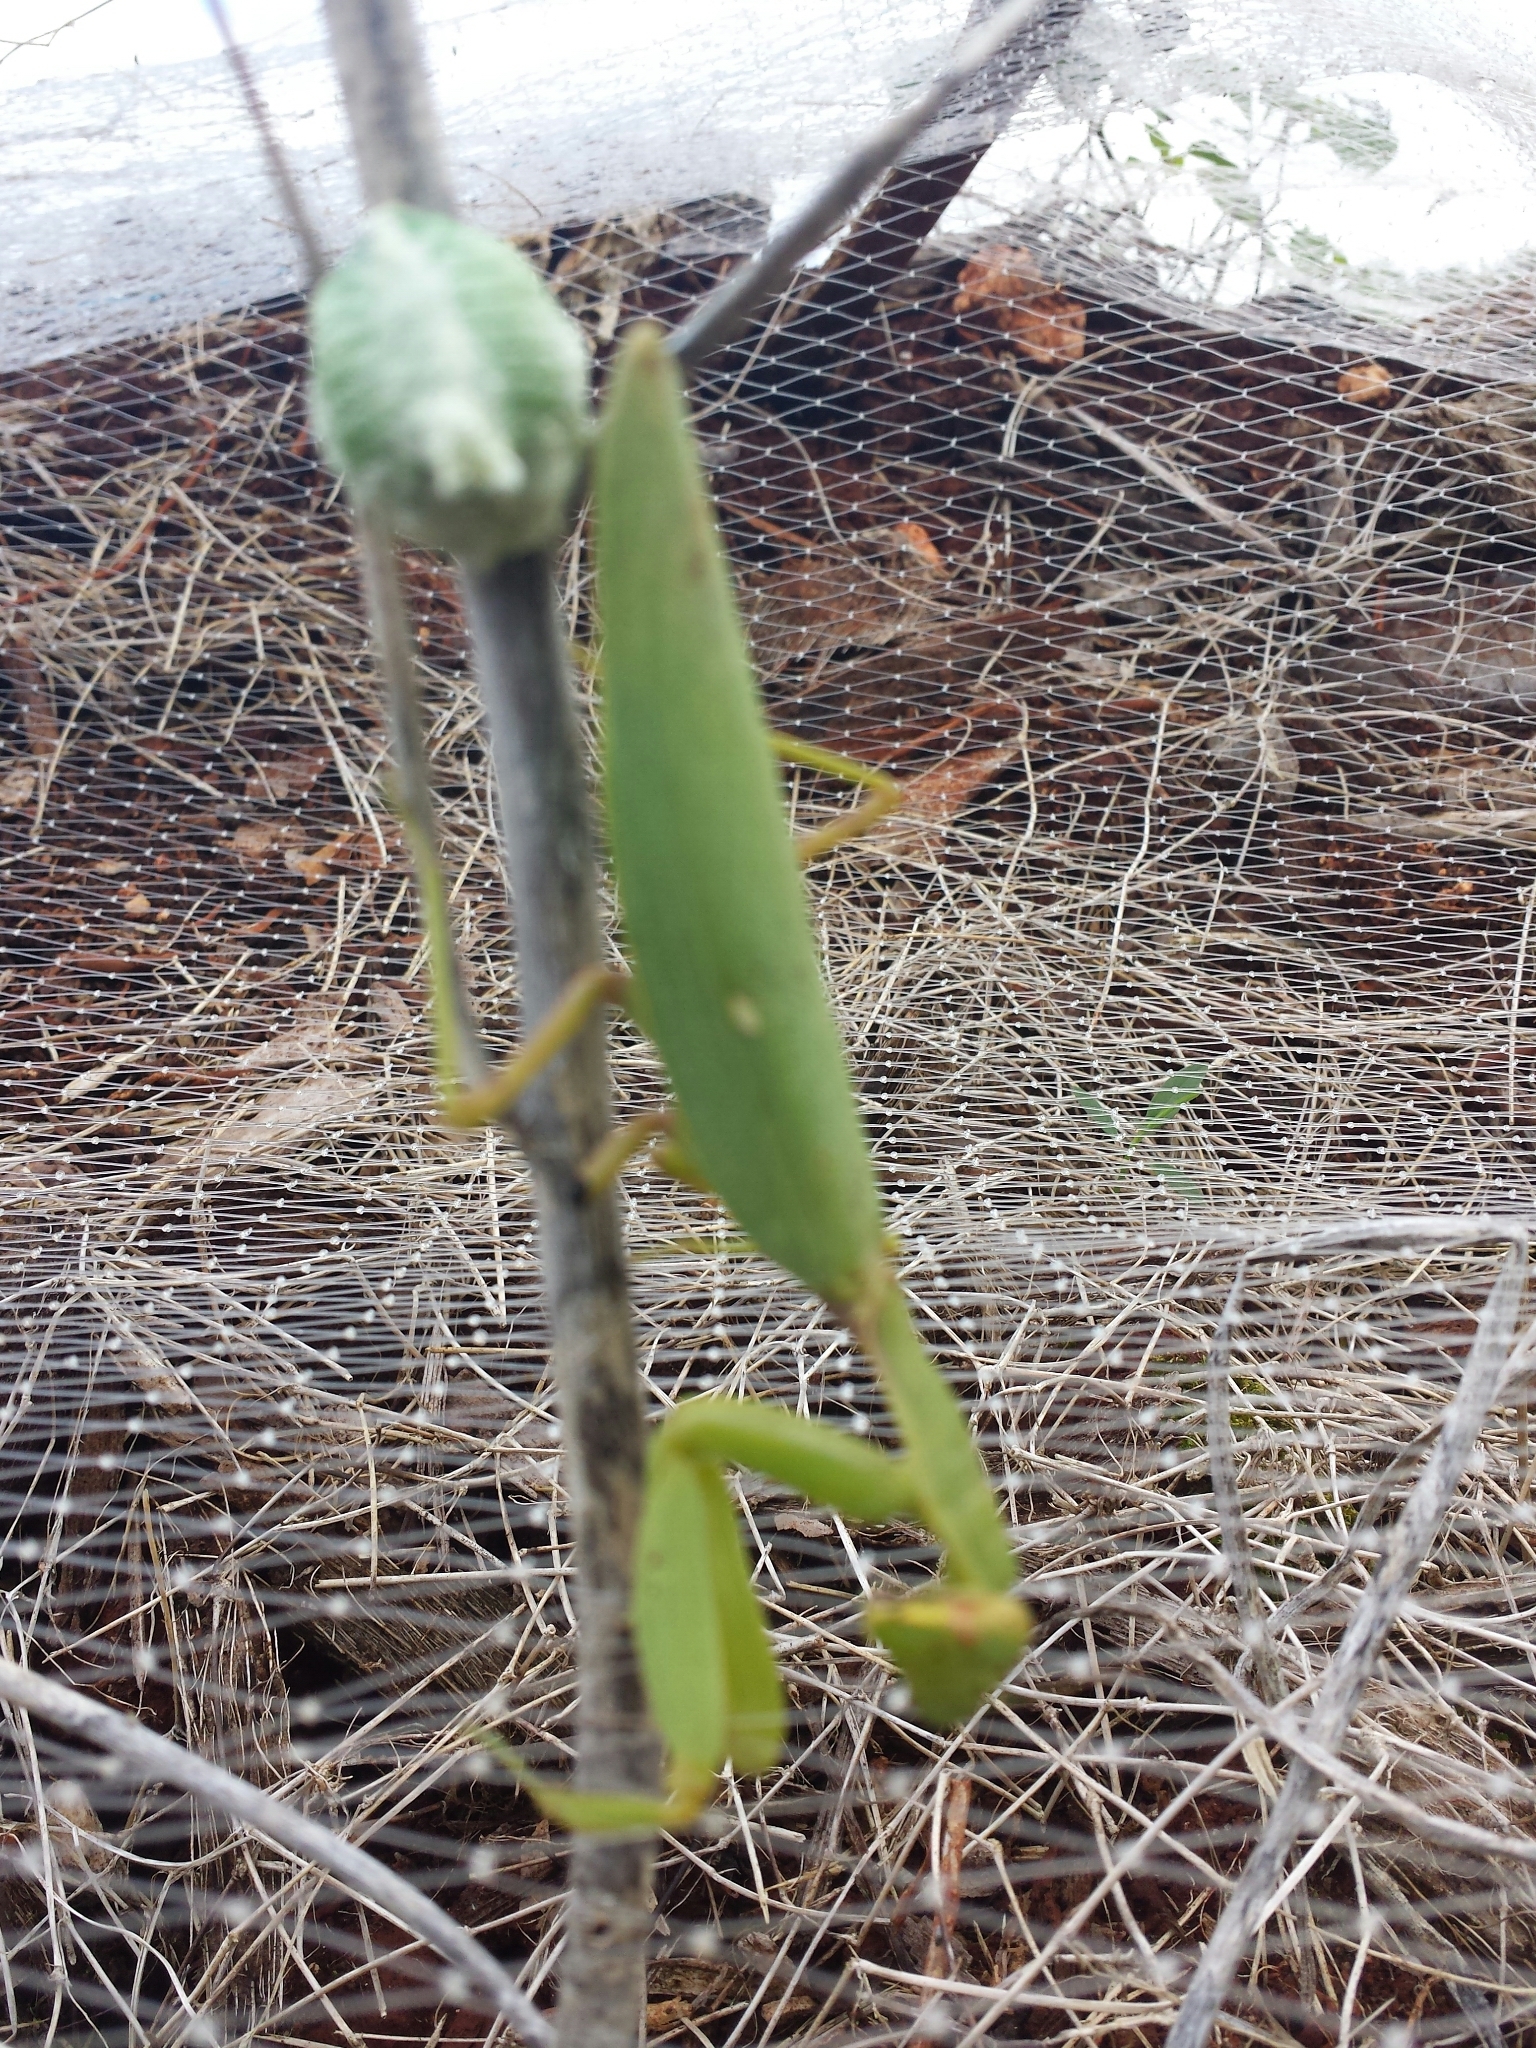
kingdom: Animalia
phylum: Arthropoda
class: Insecta
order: Mantodea
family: Mantidae
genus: Hierodula
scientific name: Hierodula patellifera
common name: Asian mantis
